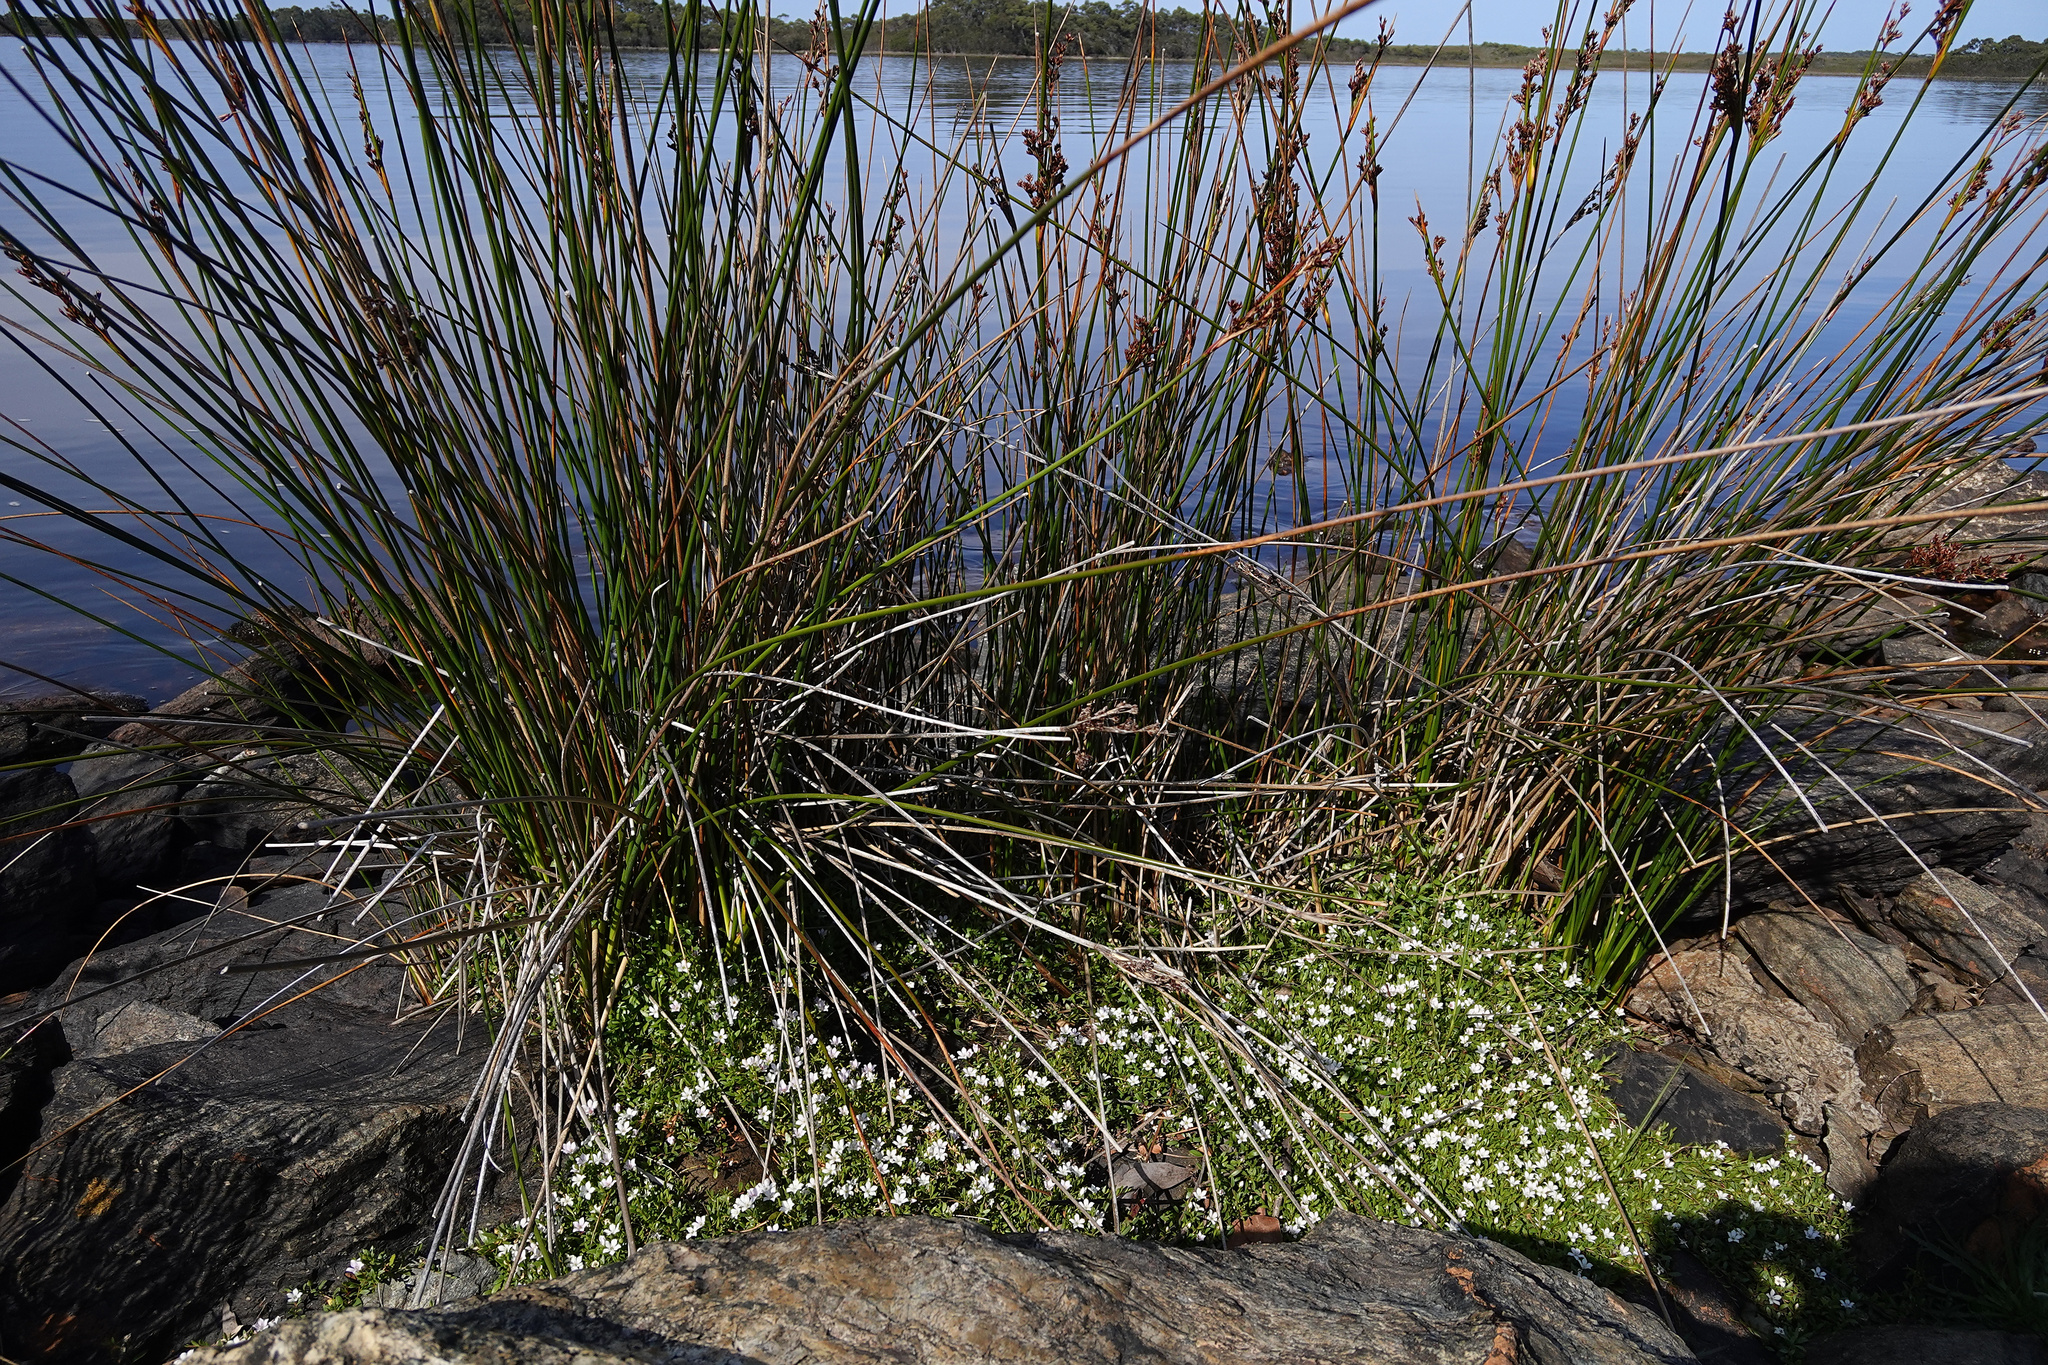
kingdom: Plantae
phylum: Tracheophyta
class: Magnoliopsida
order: Ericales
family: Primulaceae
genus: Samolus
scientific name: Samolus repens
